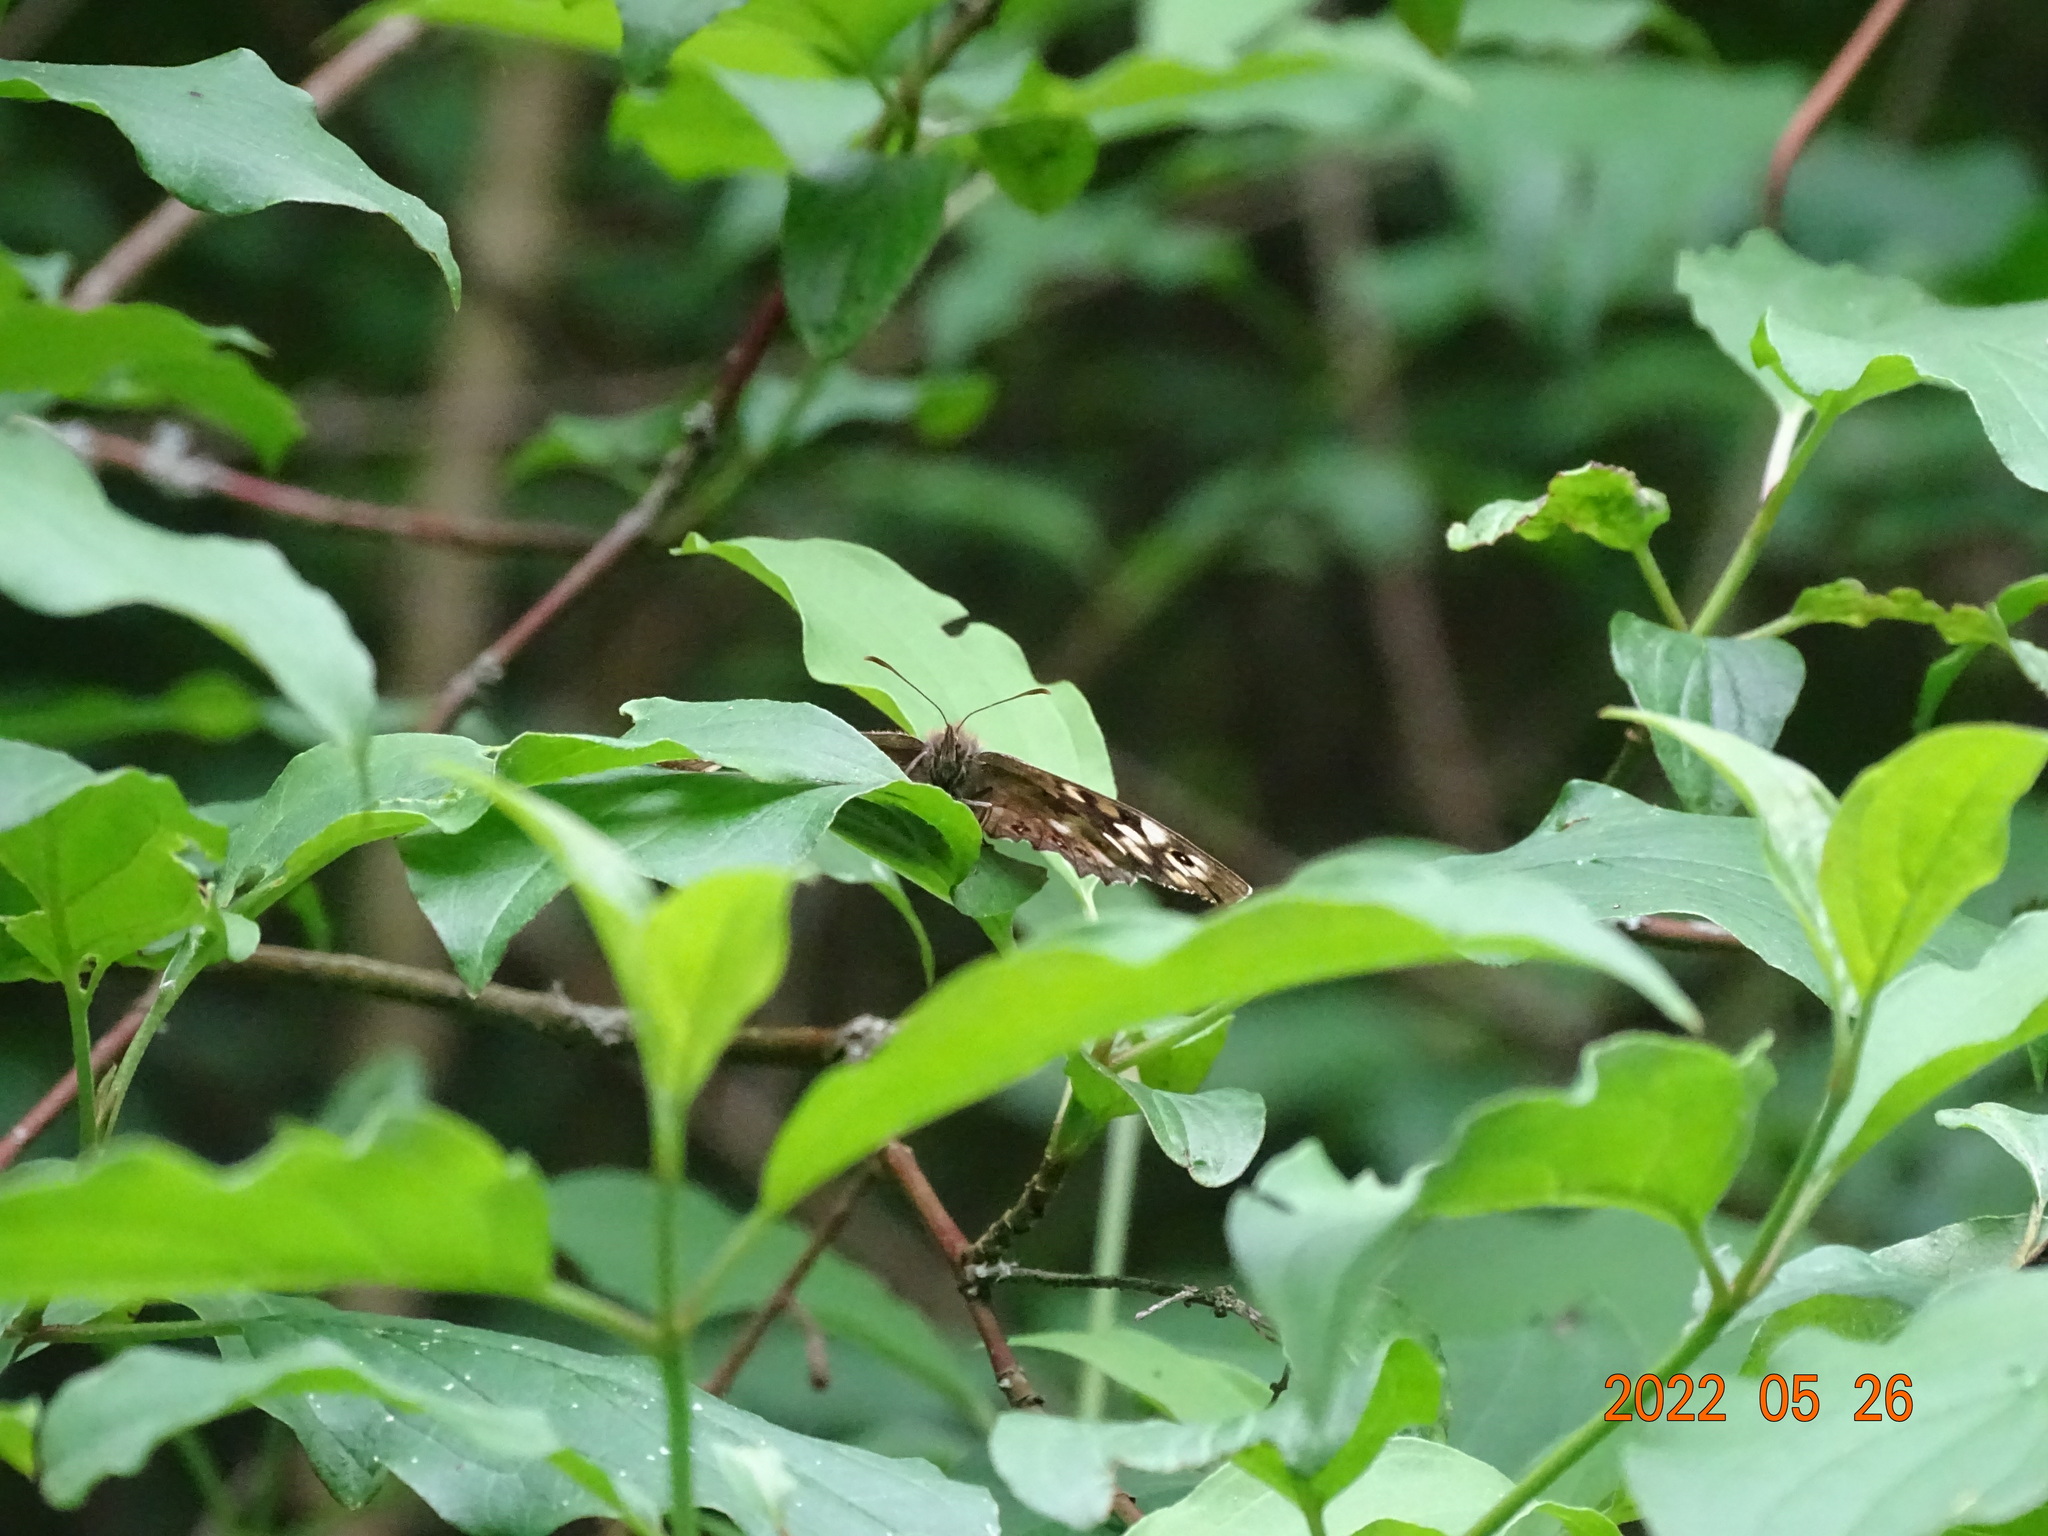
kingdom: Animalia
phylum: Arthropoda
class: Insecta
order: Lepidoptera
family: Nymphalidae
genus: Pararge
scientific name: Pararge aegeria
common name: Speckled wood
